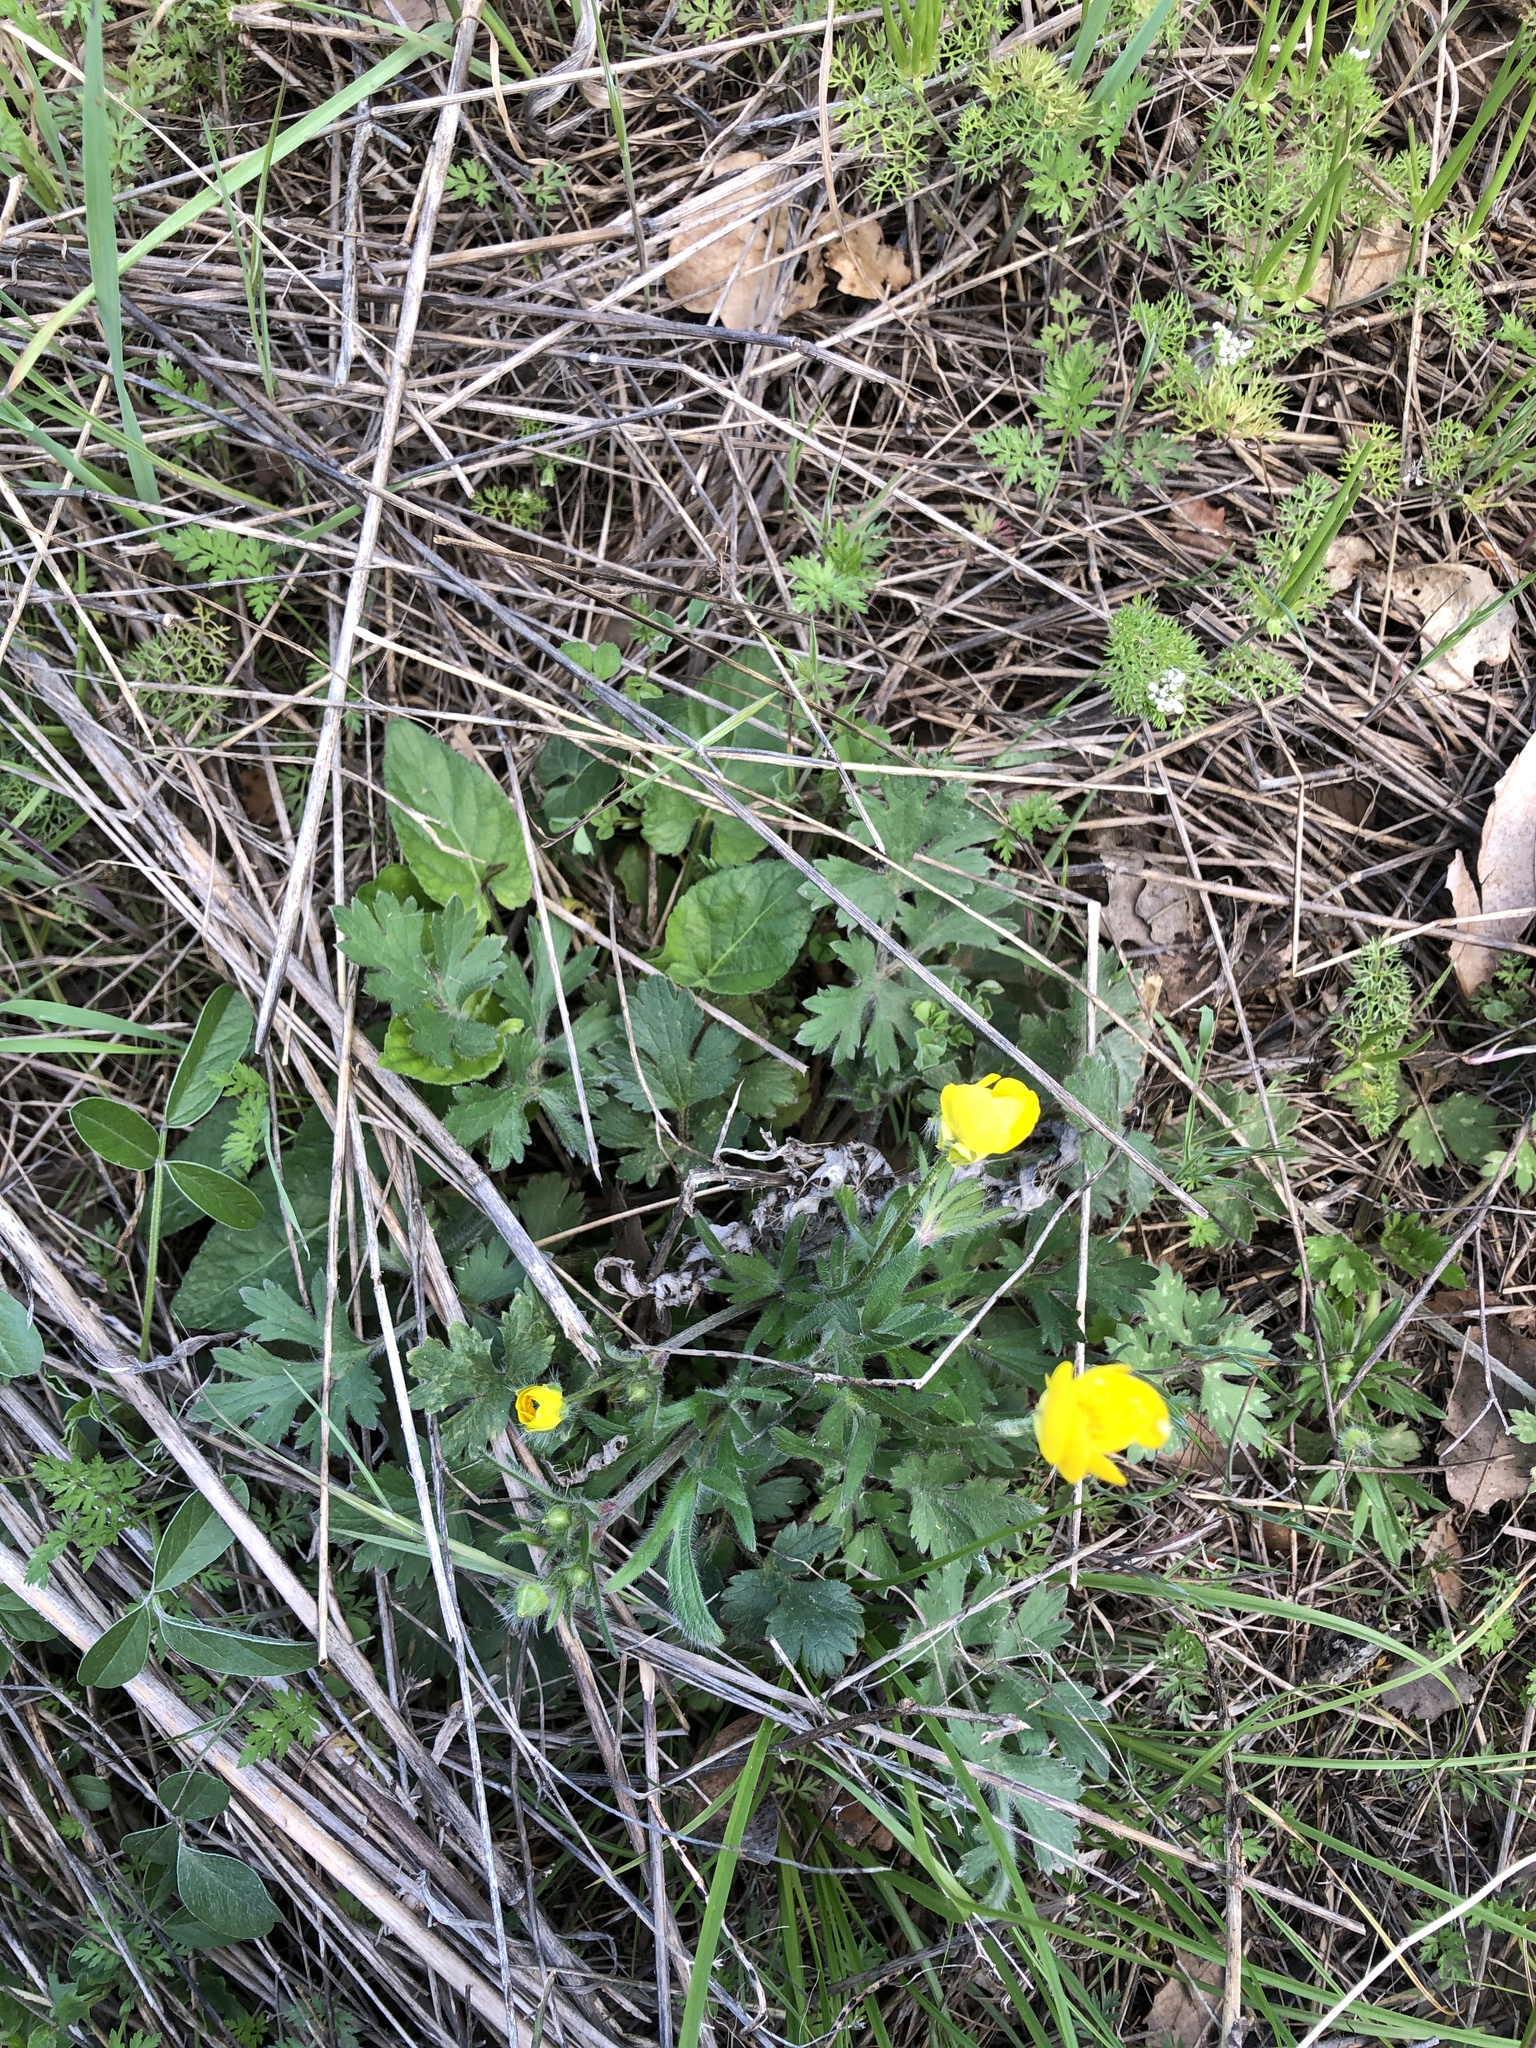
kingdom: Plantae
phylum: Tracheophyta
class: Magnoliopsida
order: Ranunculales
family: Ranunculaceae
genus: Ranunculus
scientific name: Ranunculus bulbosus
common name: Bulbous buttercup
